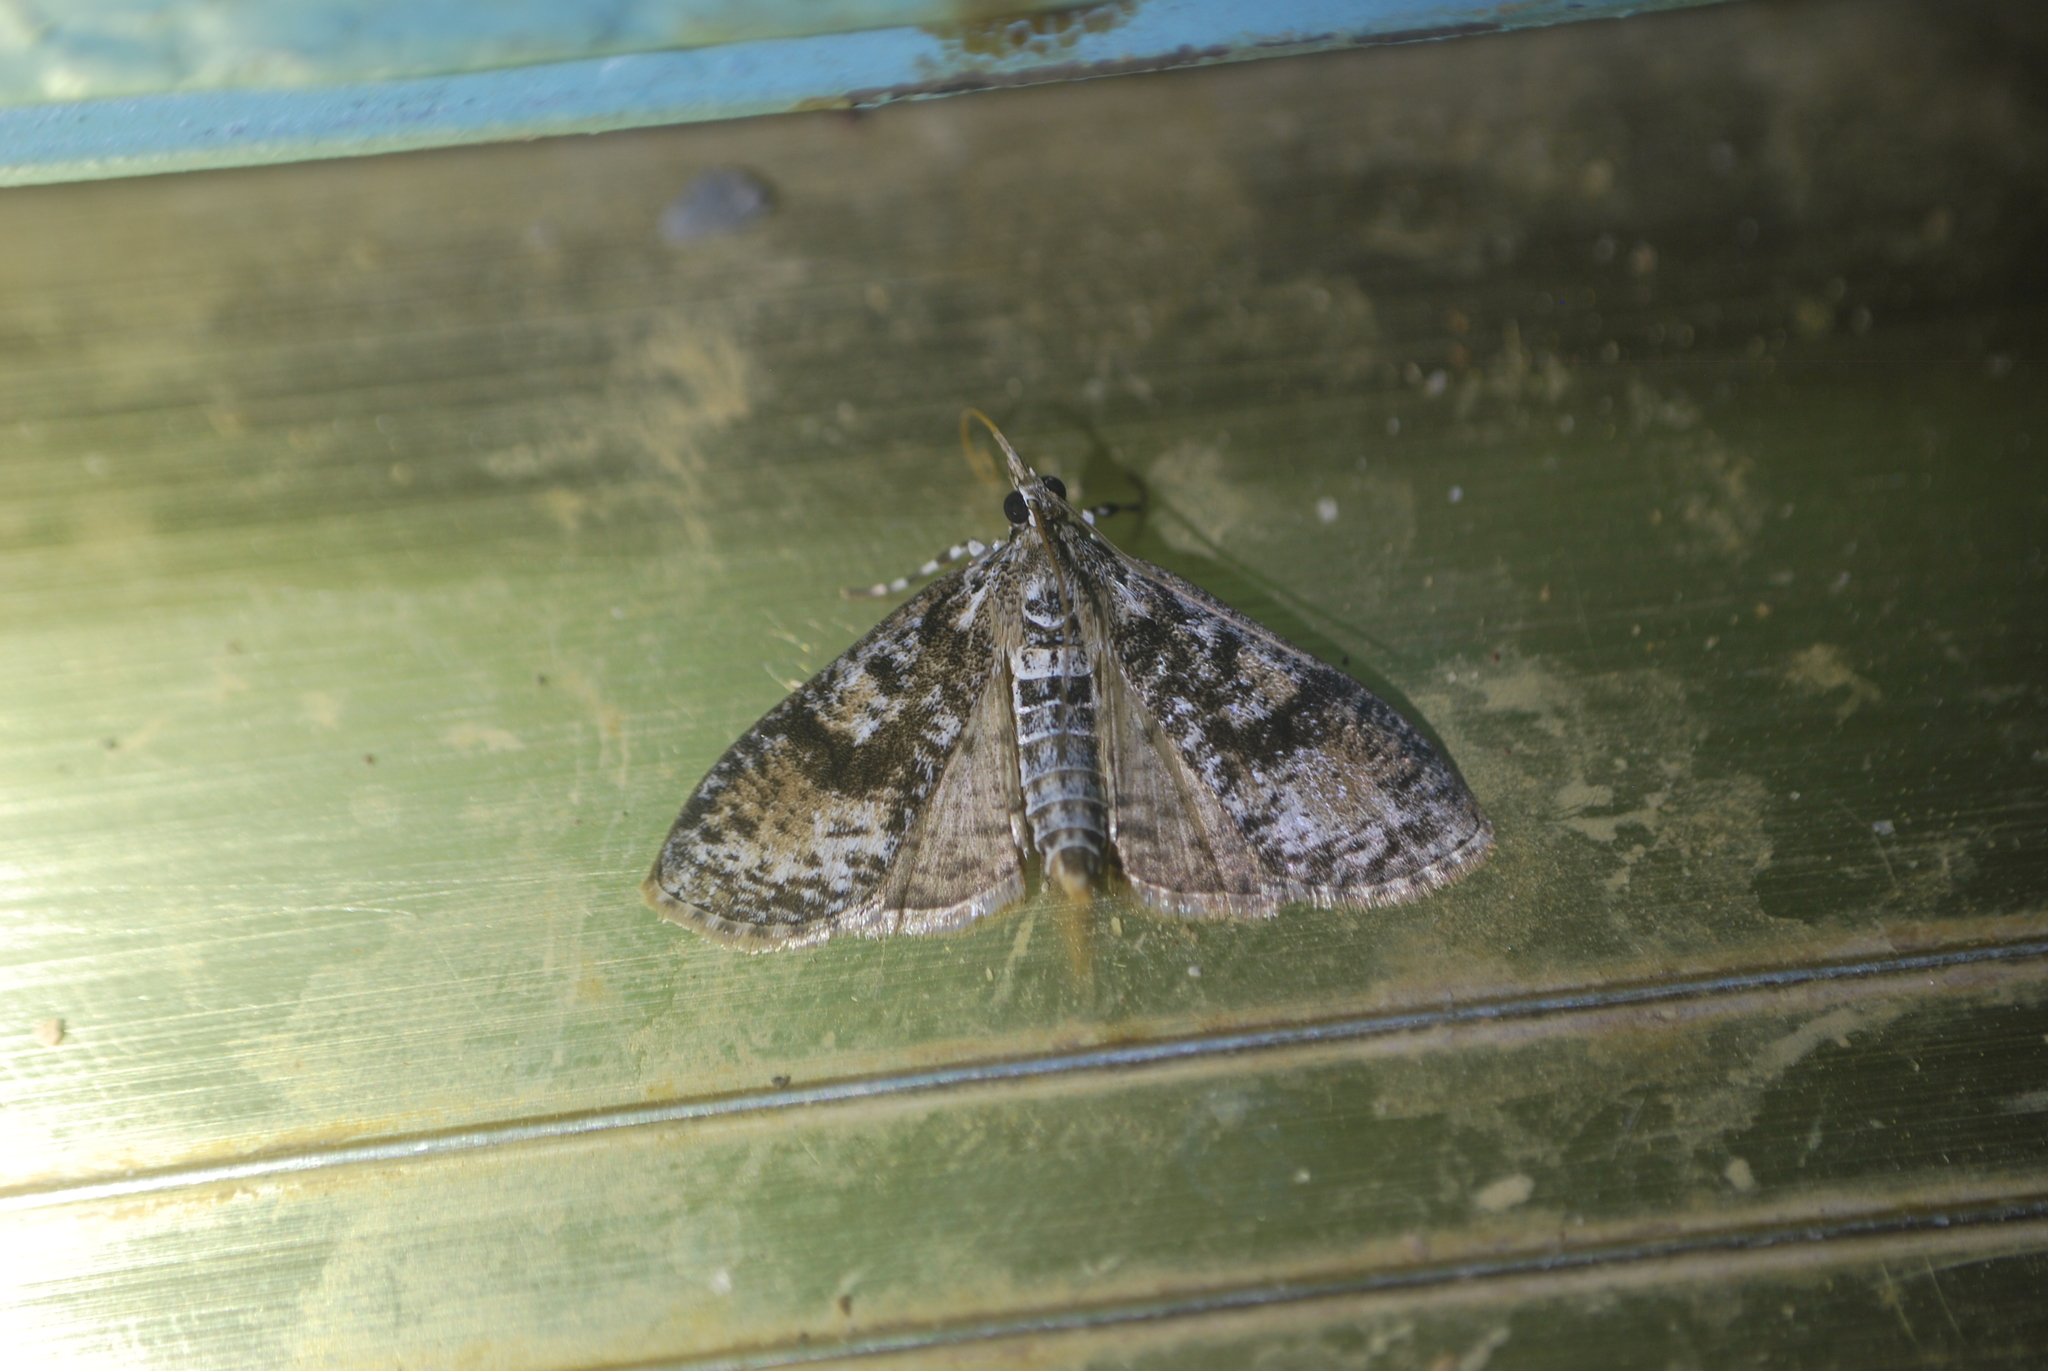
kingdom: Animalia
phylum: Arthropoda
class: Insecta
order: Lepidoptera
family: Crambidae
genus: Palpita
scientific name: Palpita magniferalis
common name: Splendid palpita moth
